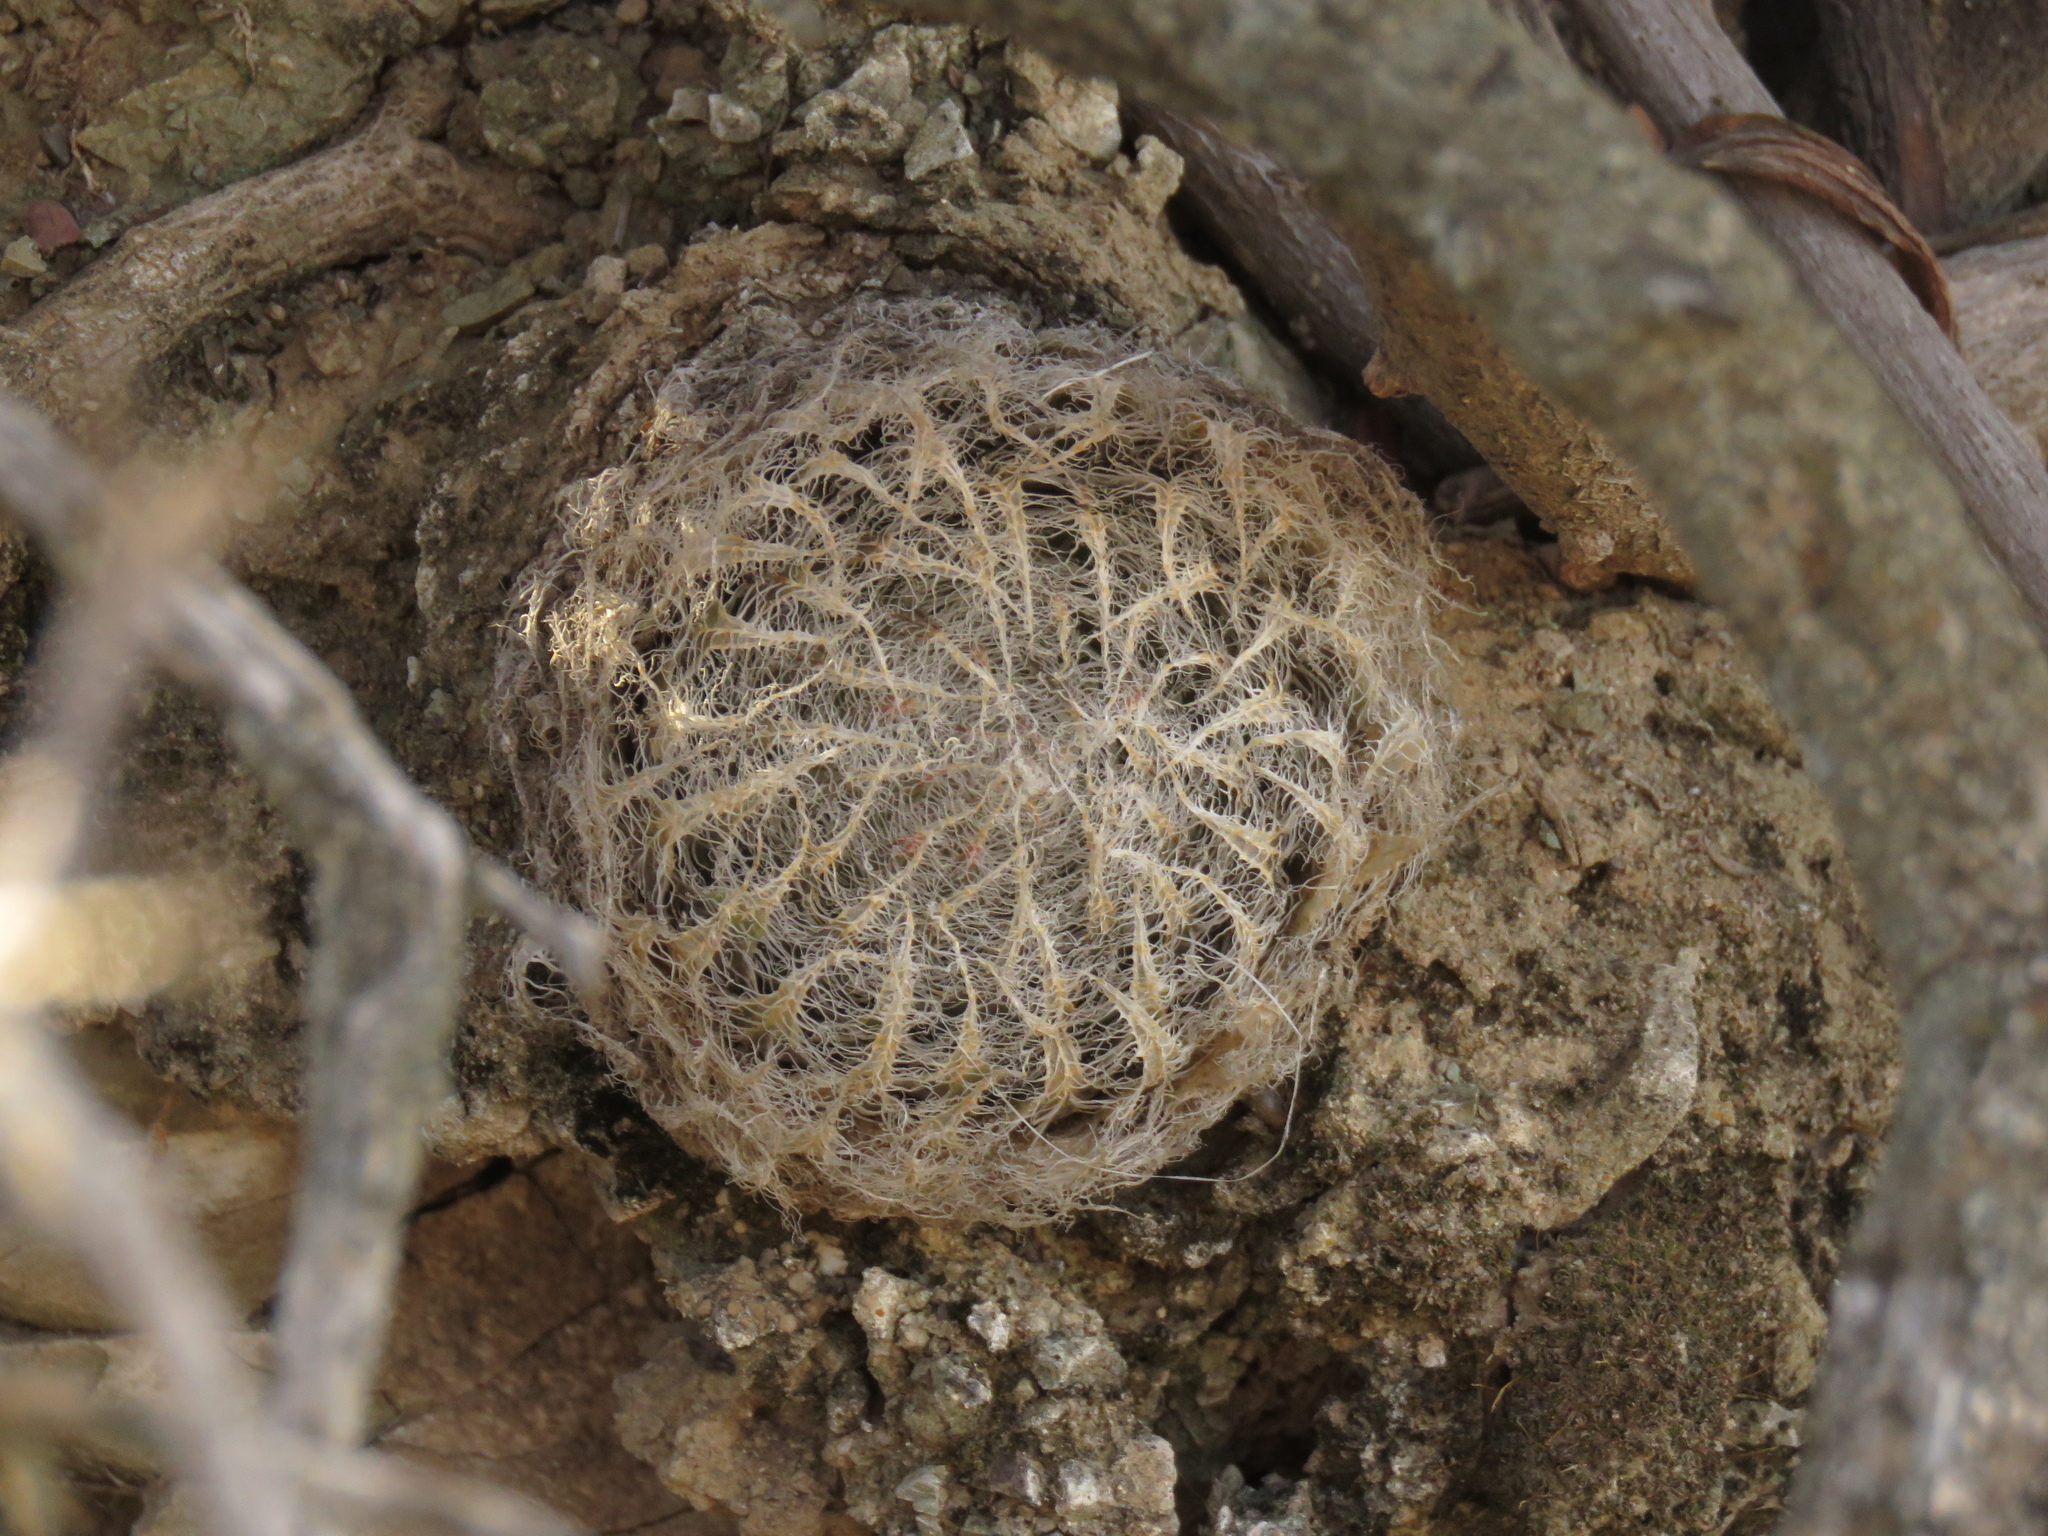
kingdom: Plantae
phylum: Tracheophyta
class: Liliopsida
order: Asparagales
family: Asphodelaceae
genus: Haworthia
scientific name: Haworthia bolusii
